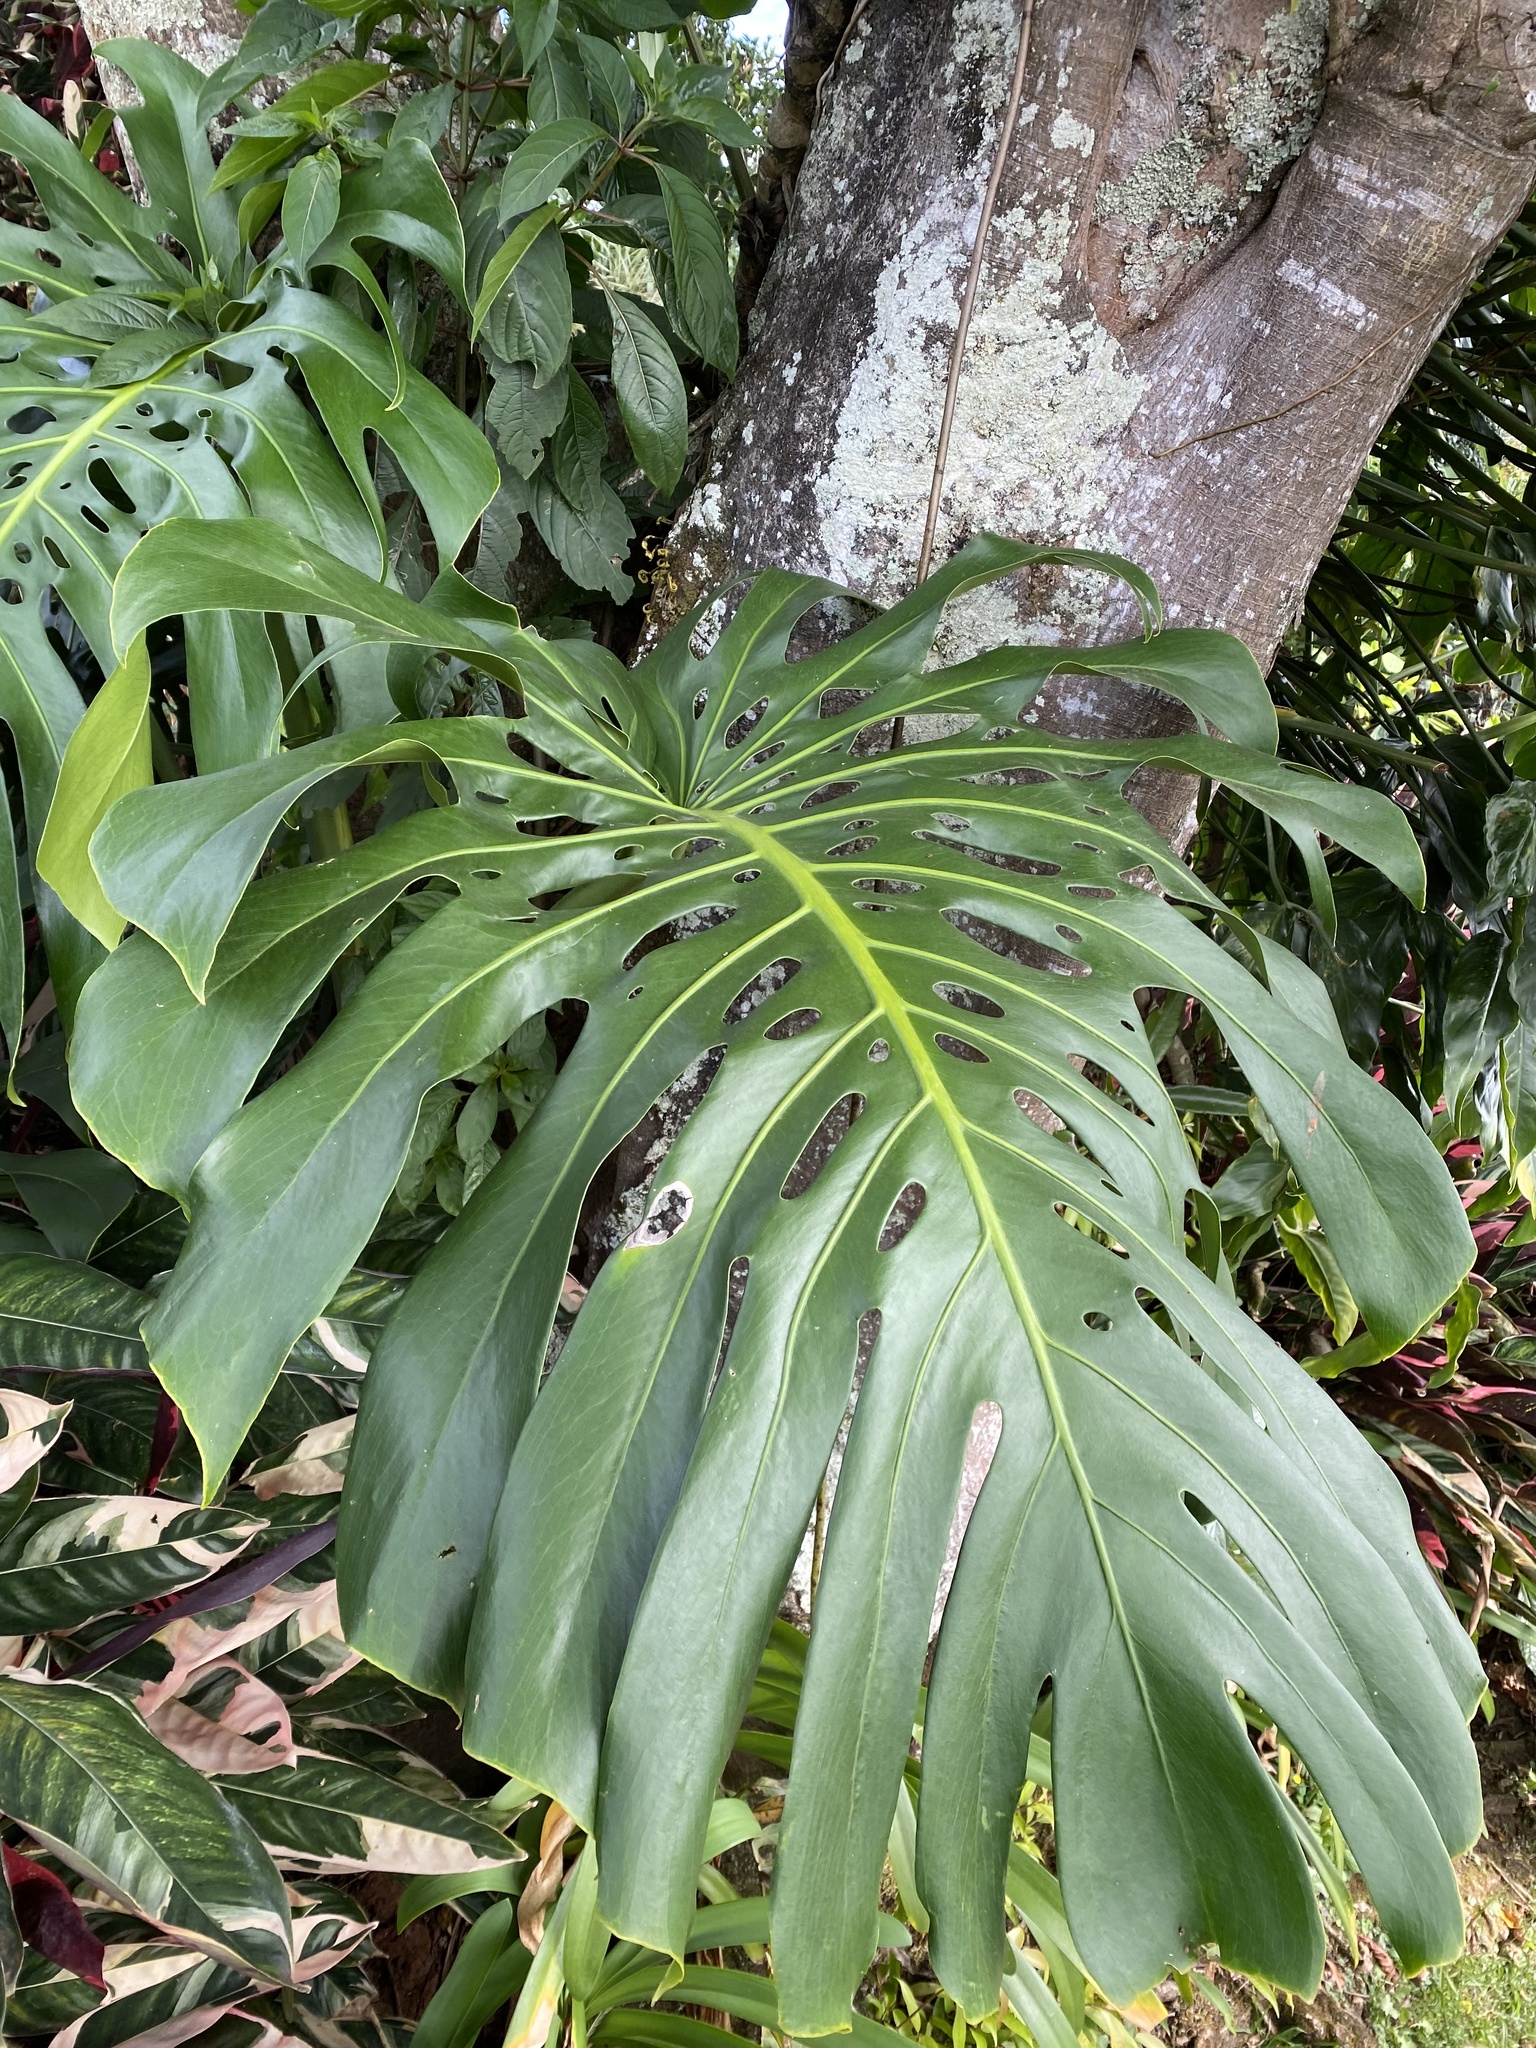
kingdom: Plantae
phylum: Tracheophyta
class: Liliopsida
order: Alismatales
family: Araceae
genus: Monstera
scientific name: Monstera deliciosa
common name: Cut-leaf-philodendron
